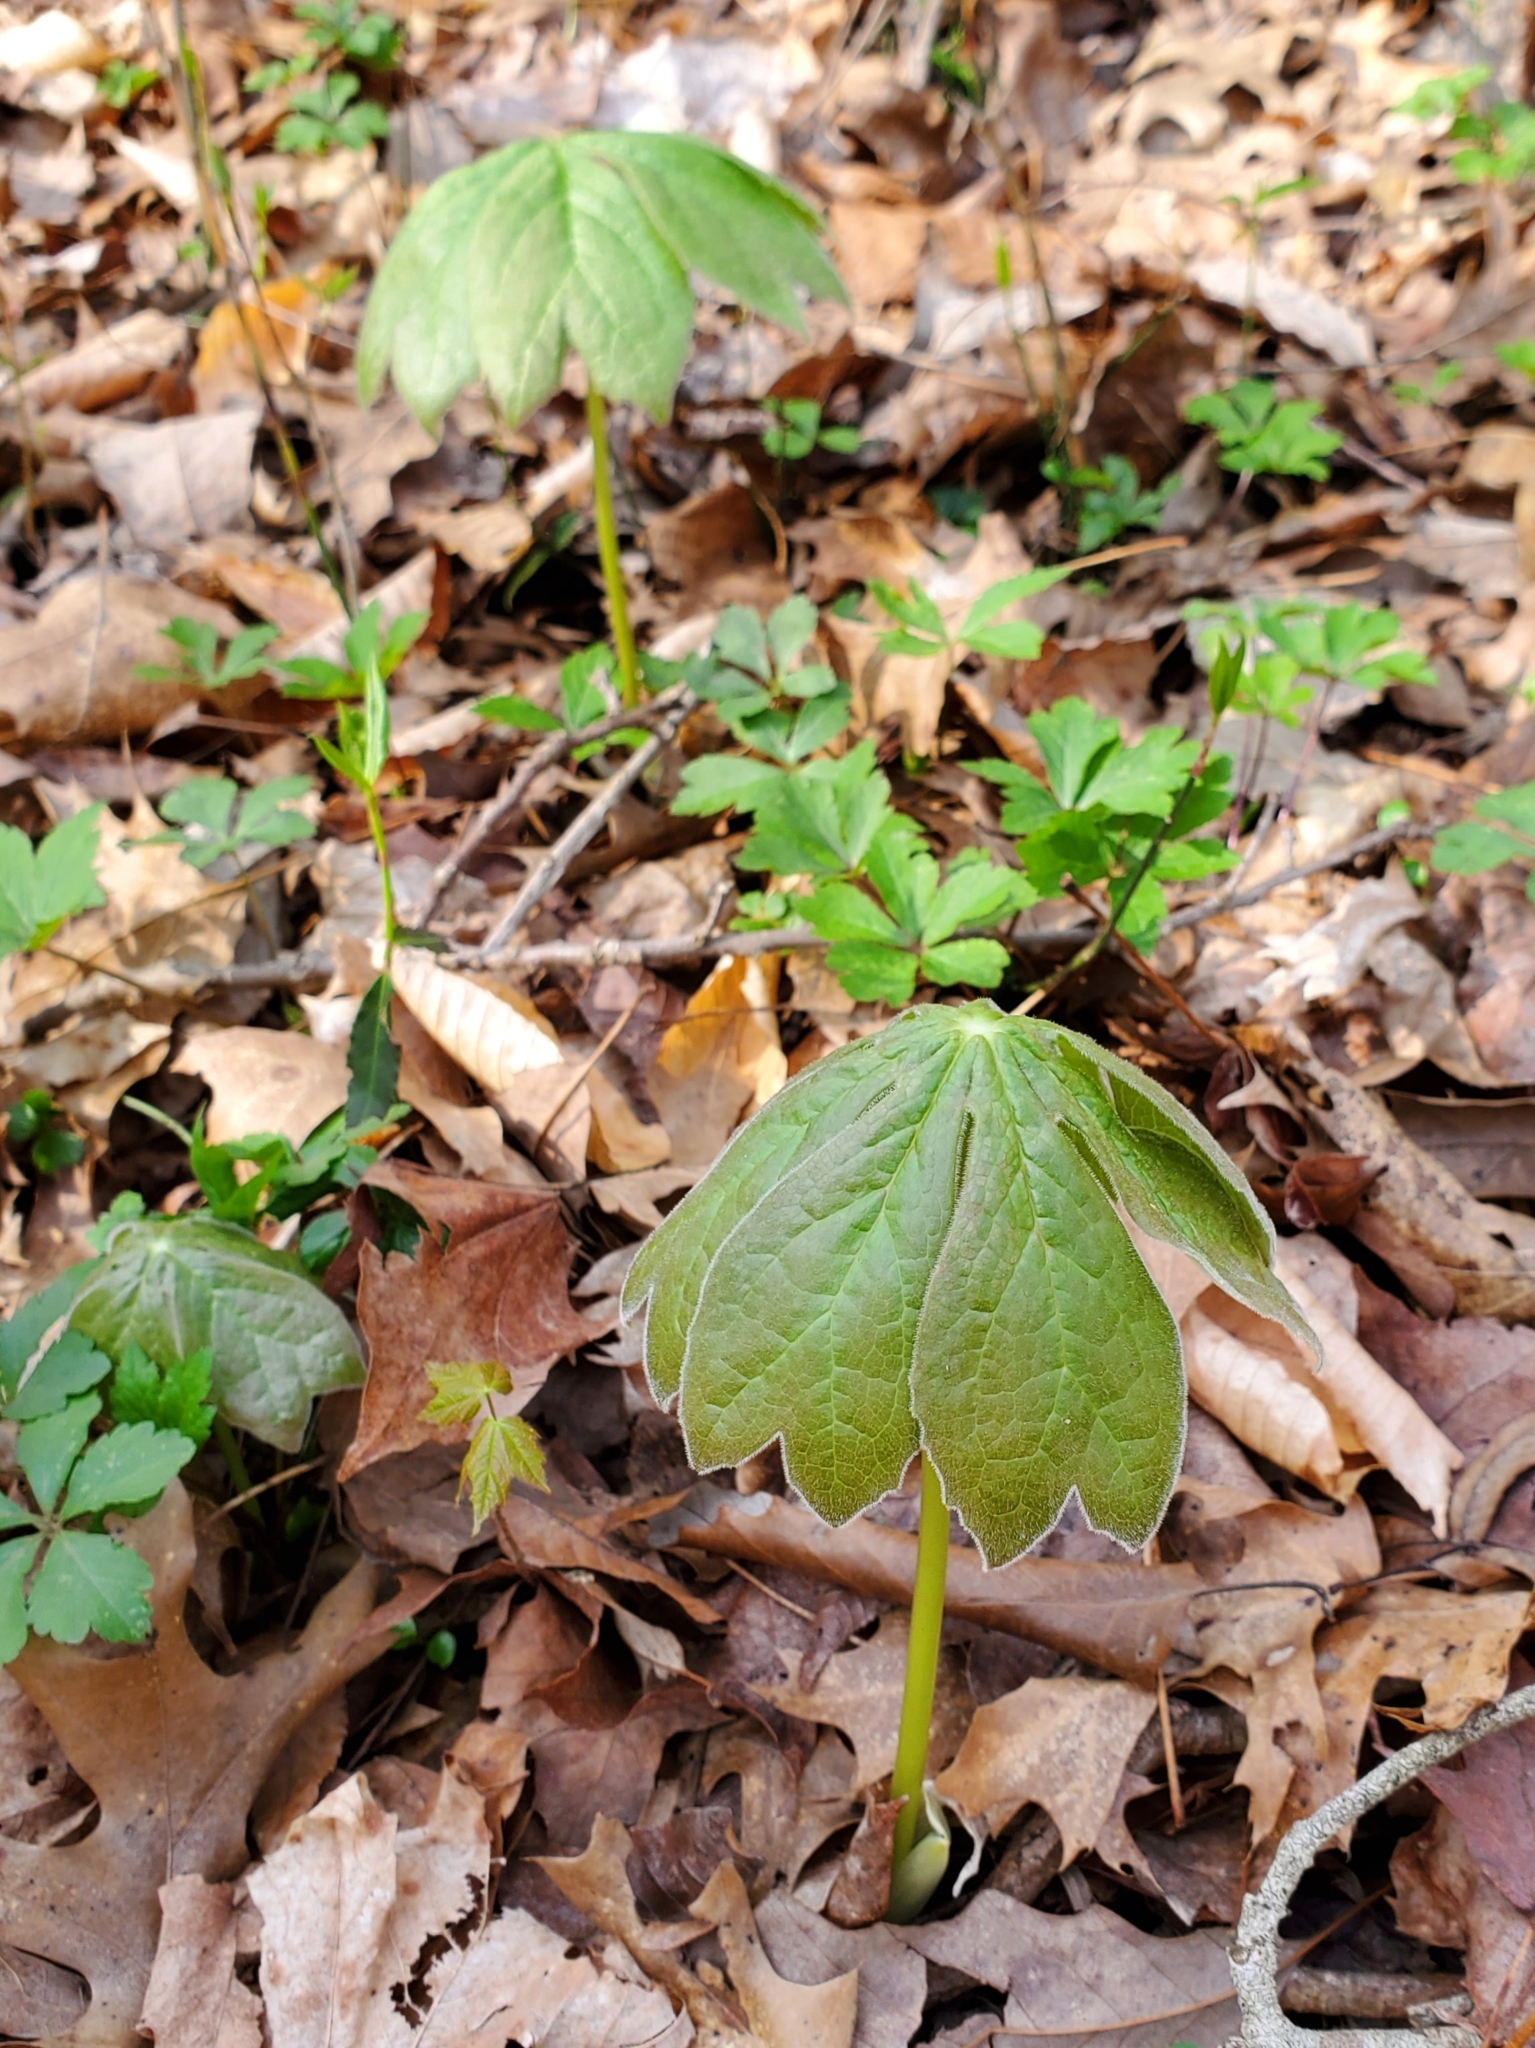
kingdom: Plantae
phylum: Tracheophyta
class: Magnoliopsida
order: Ranunculales
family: Berberidaceae
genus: Podophyllum
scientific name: Podophyllum peltatum
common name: Wild mandrake
